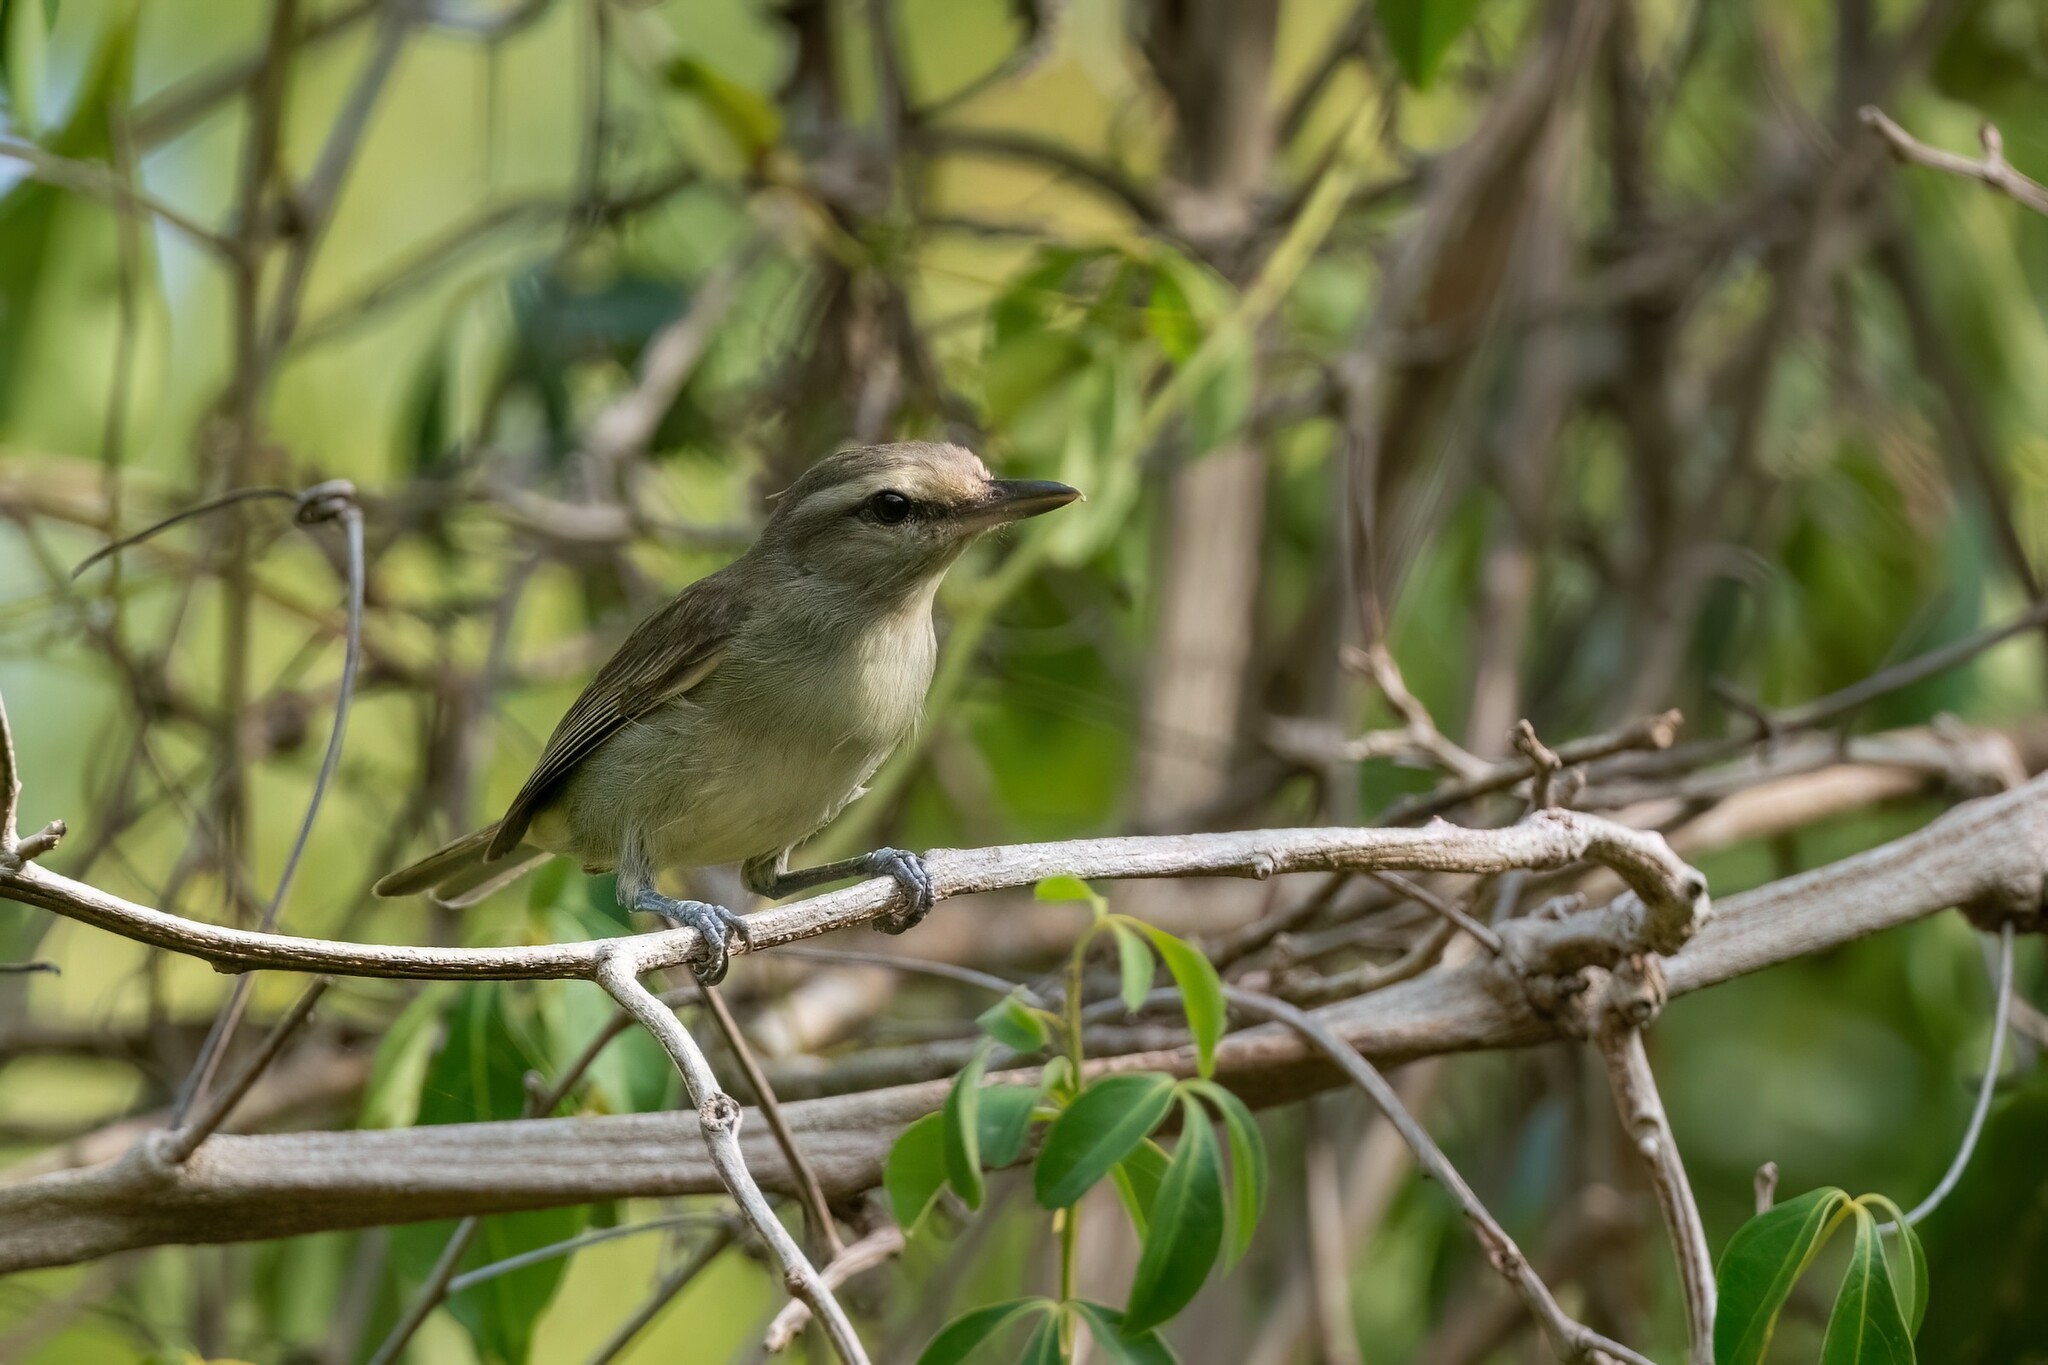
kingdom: Animalia
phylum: Chordata
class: Aves
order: Passeriformes
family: Vireonidae
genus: Vireo
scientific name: Vireo magister
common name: Yucatan vireo
